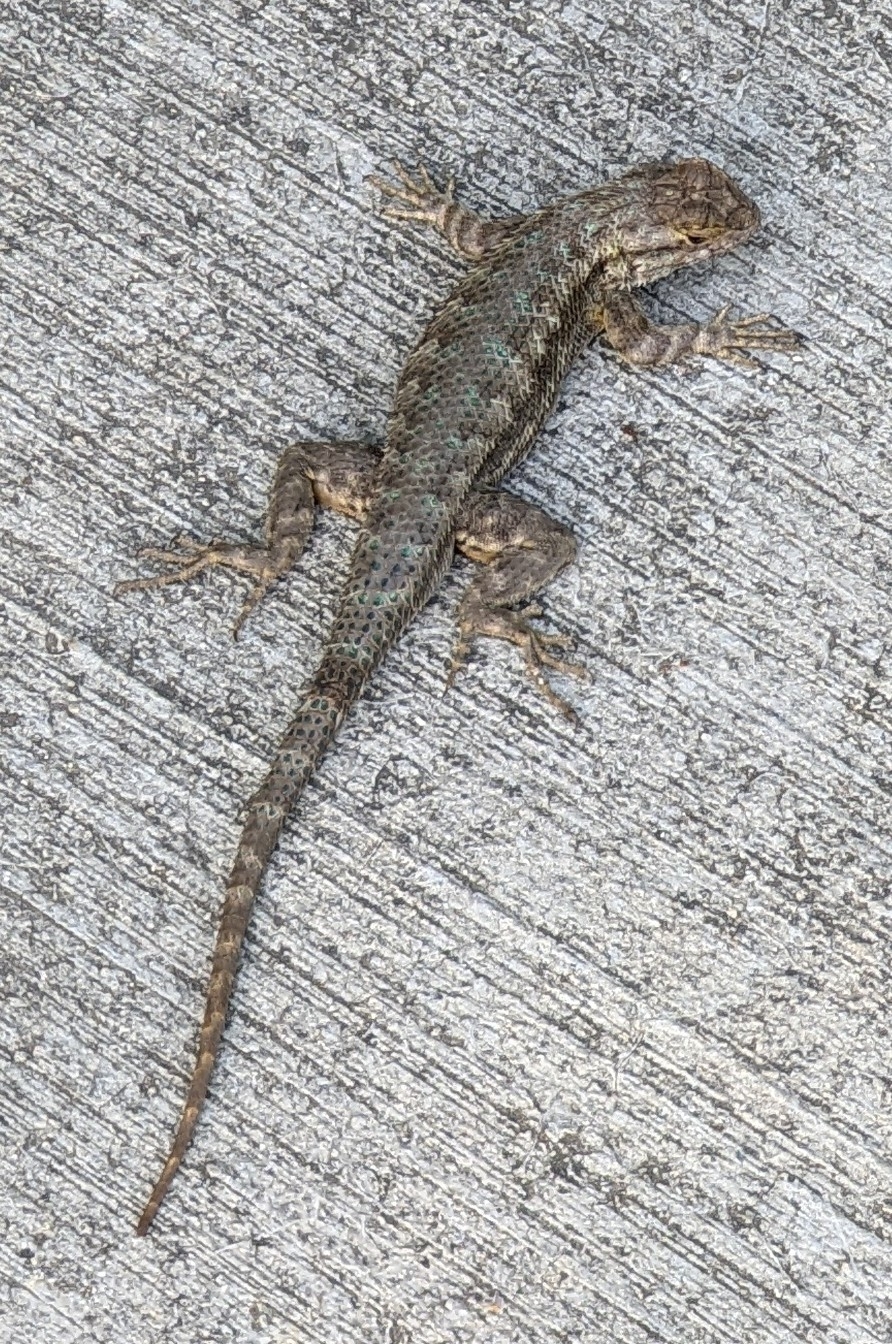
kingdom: Animalia
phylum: Chordata
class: Squamata
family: Phrynosomatidae
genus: Sceloporus
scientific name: Sceloporus occidentalis
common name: Western fence lizard
